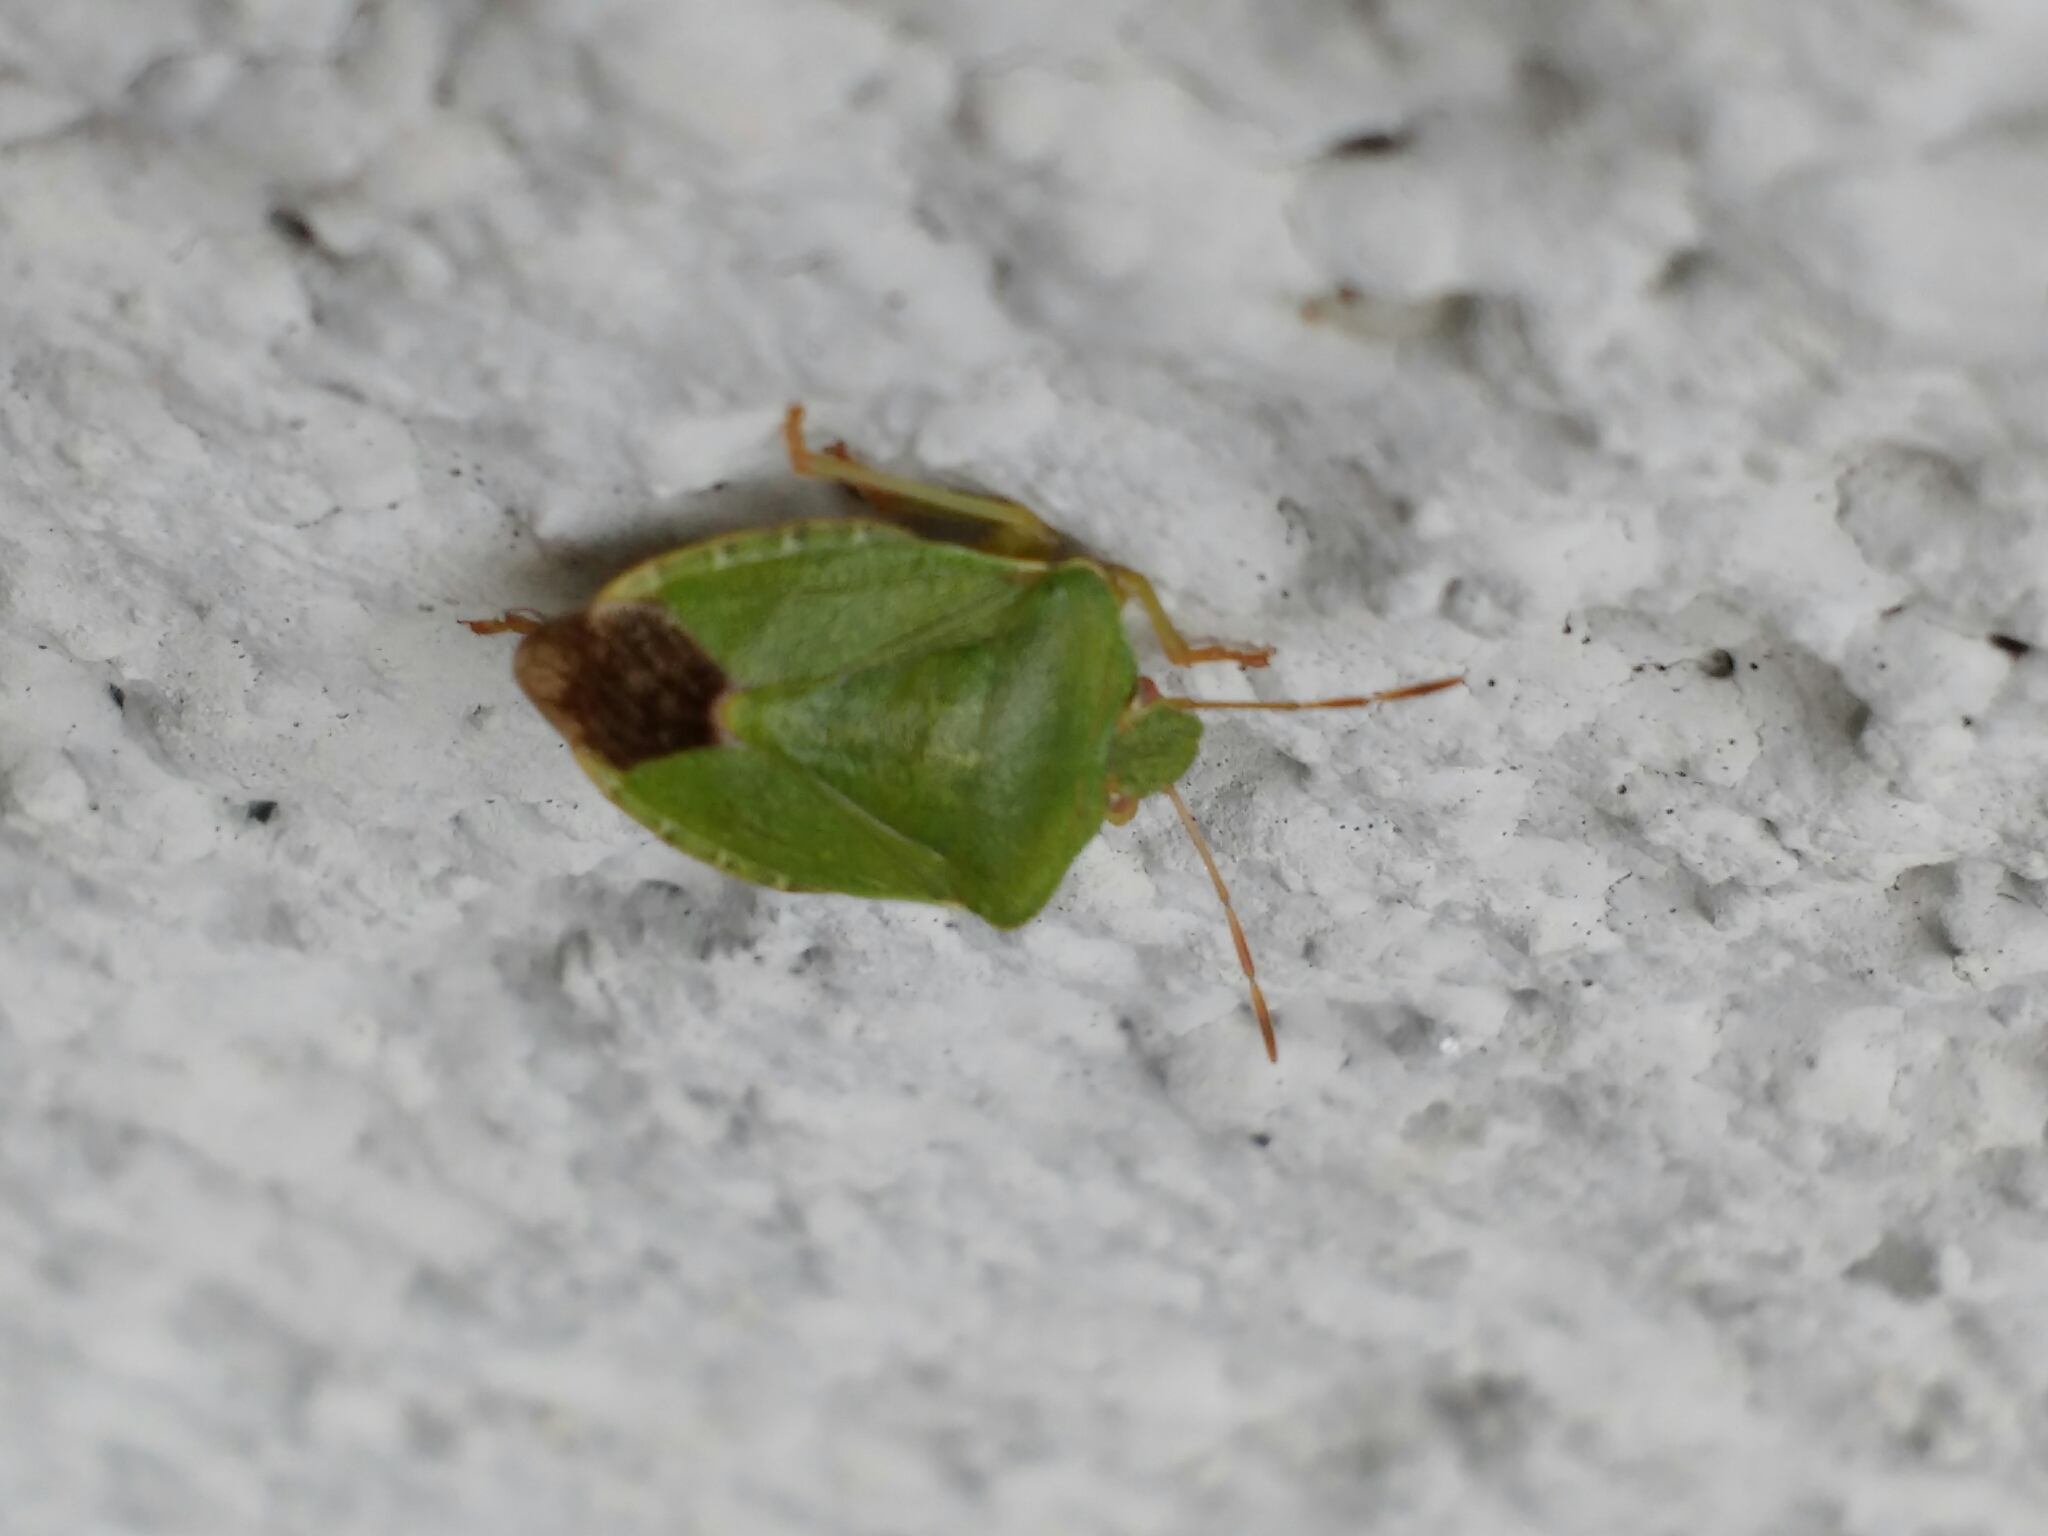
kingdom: Animalia
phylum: Arthropoda
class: Insecta
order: Hemiptera
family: Pentatomidae
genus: Palomena
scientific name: Palomena prasina
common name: Green shieldbug
